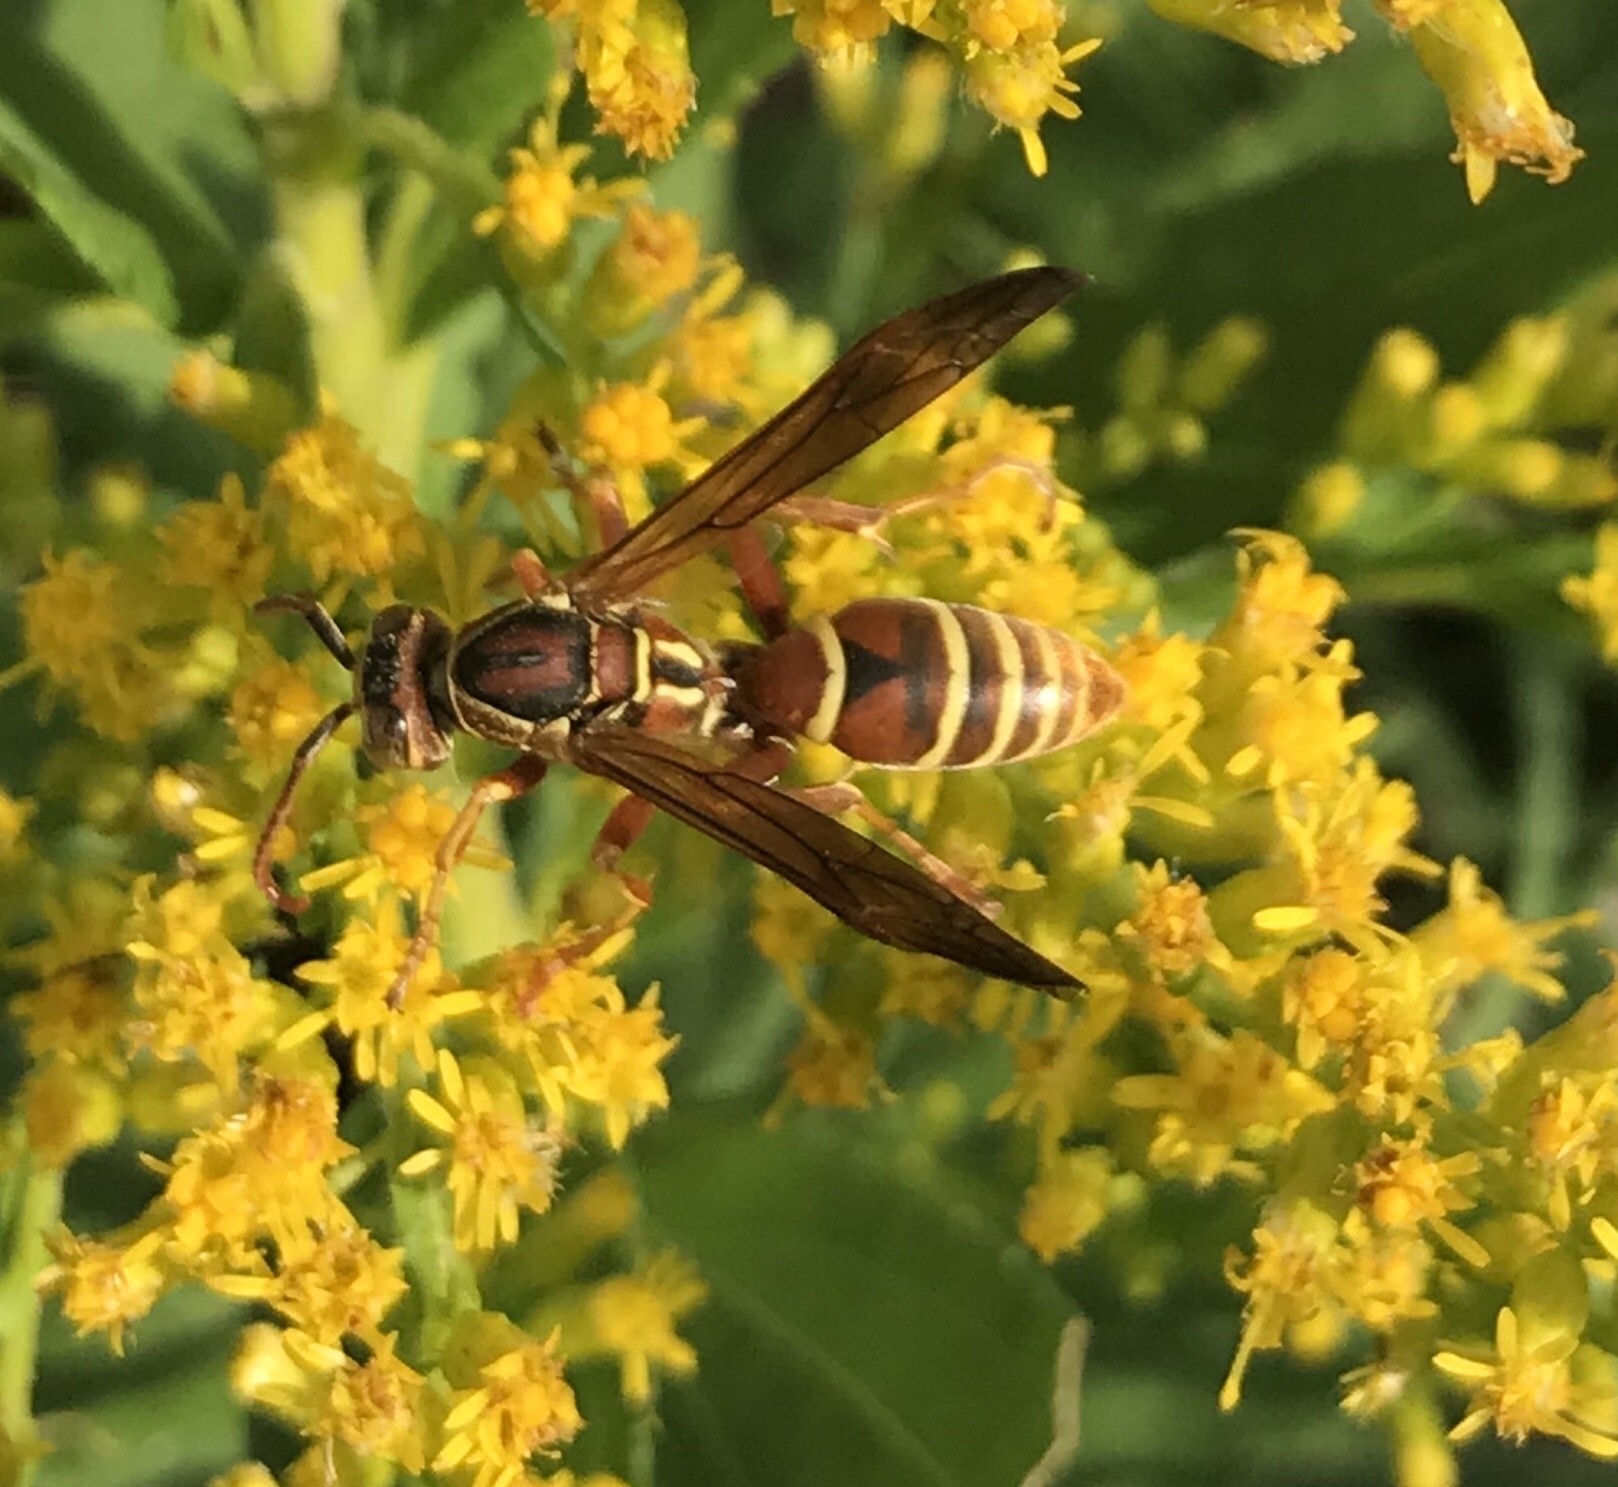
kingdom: Animalia
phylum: Arthropoda
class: Insecta
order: Hymenoptera
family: Eumenidae
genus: Polistes
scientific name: Polistes bellicosus
